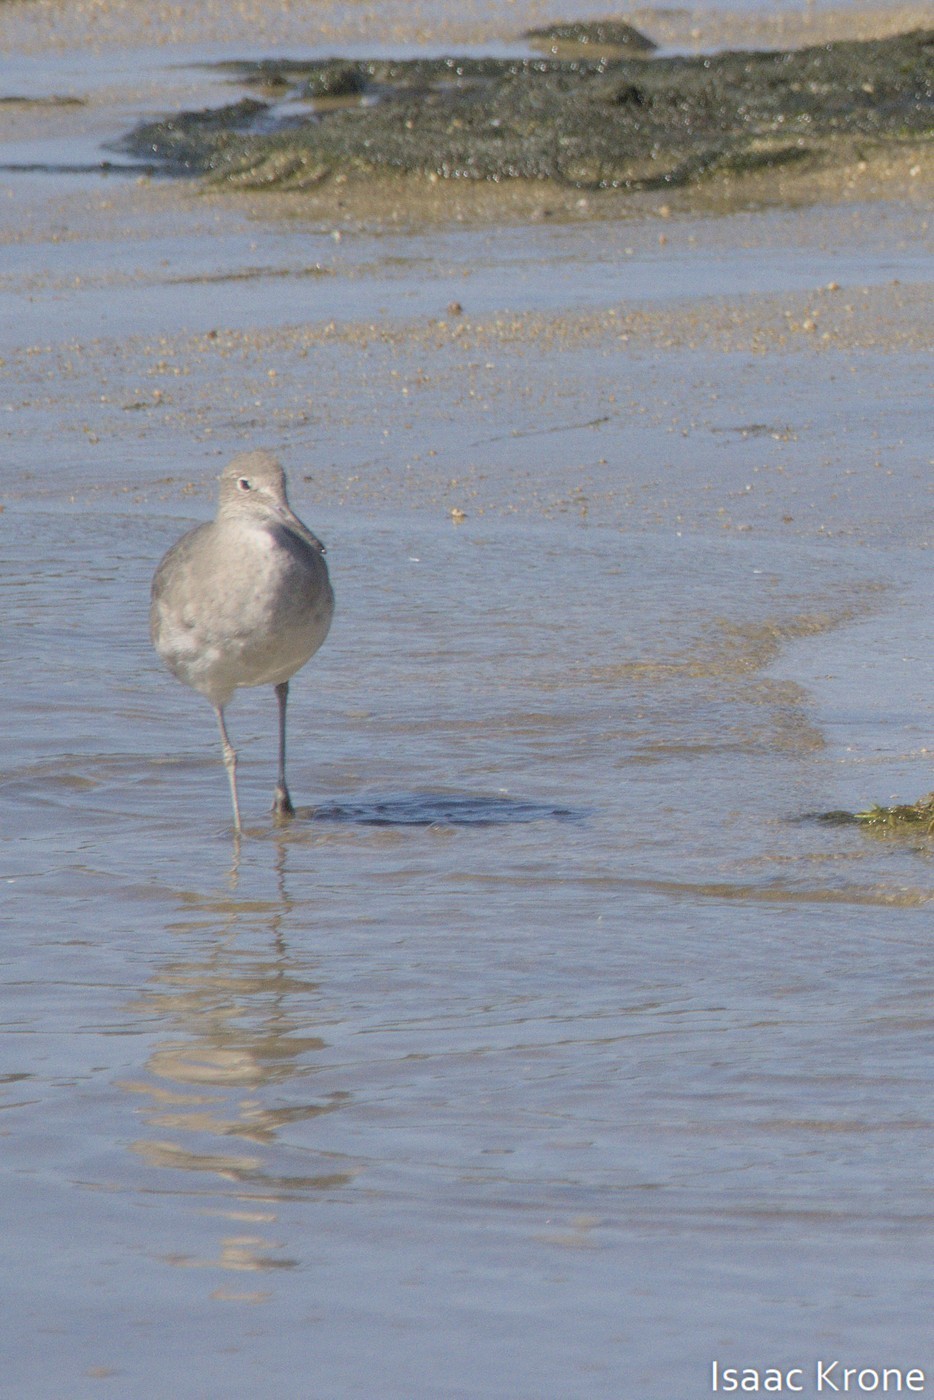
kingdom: Animalia
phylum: Chordata
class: Aves
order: Charadriiformes
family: Scolopacidae
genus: Tringa
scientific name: Tringa semipalmata
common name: Willet
